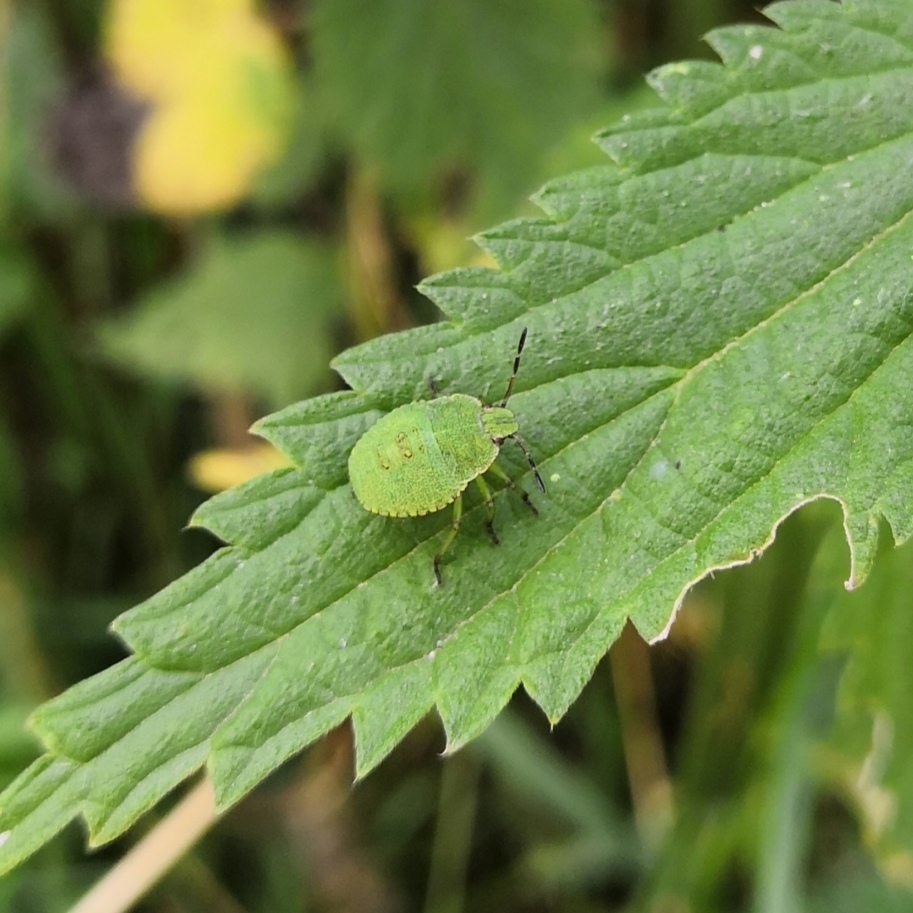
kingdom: Animalia
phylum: Arthropoda
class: Insecta
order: Hemiptera
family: Pentatomidae
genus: Palomena
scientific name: Palomena prasina
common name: Green shieldbug
